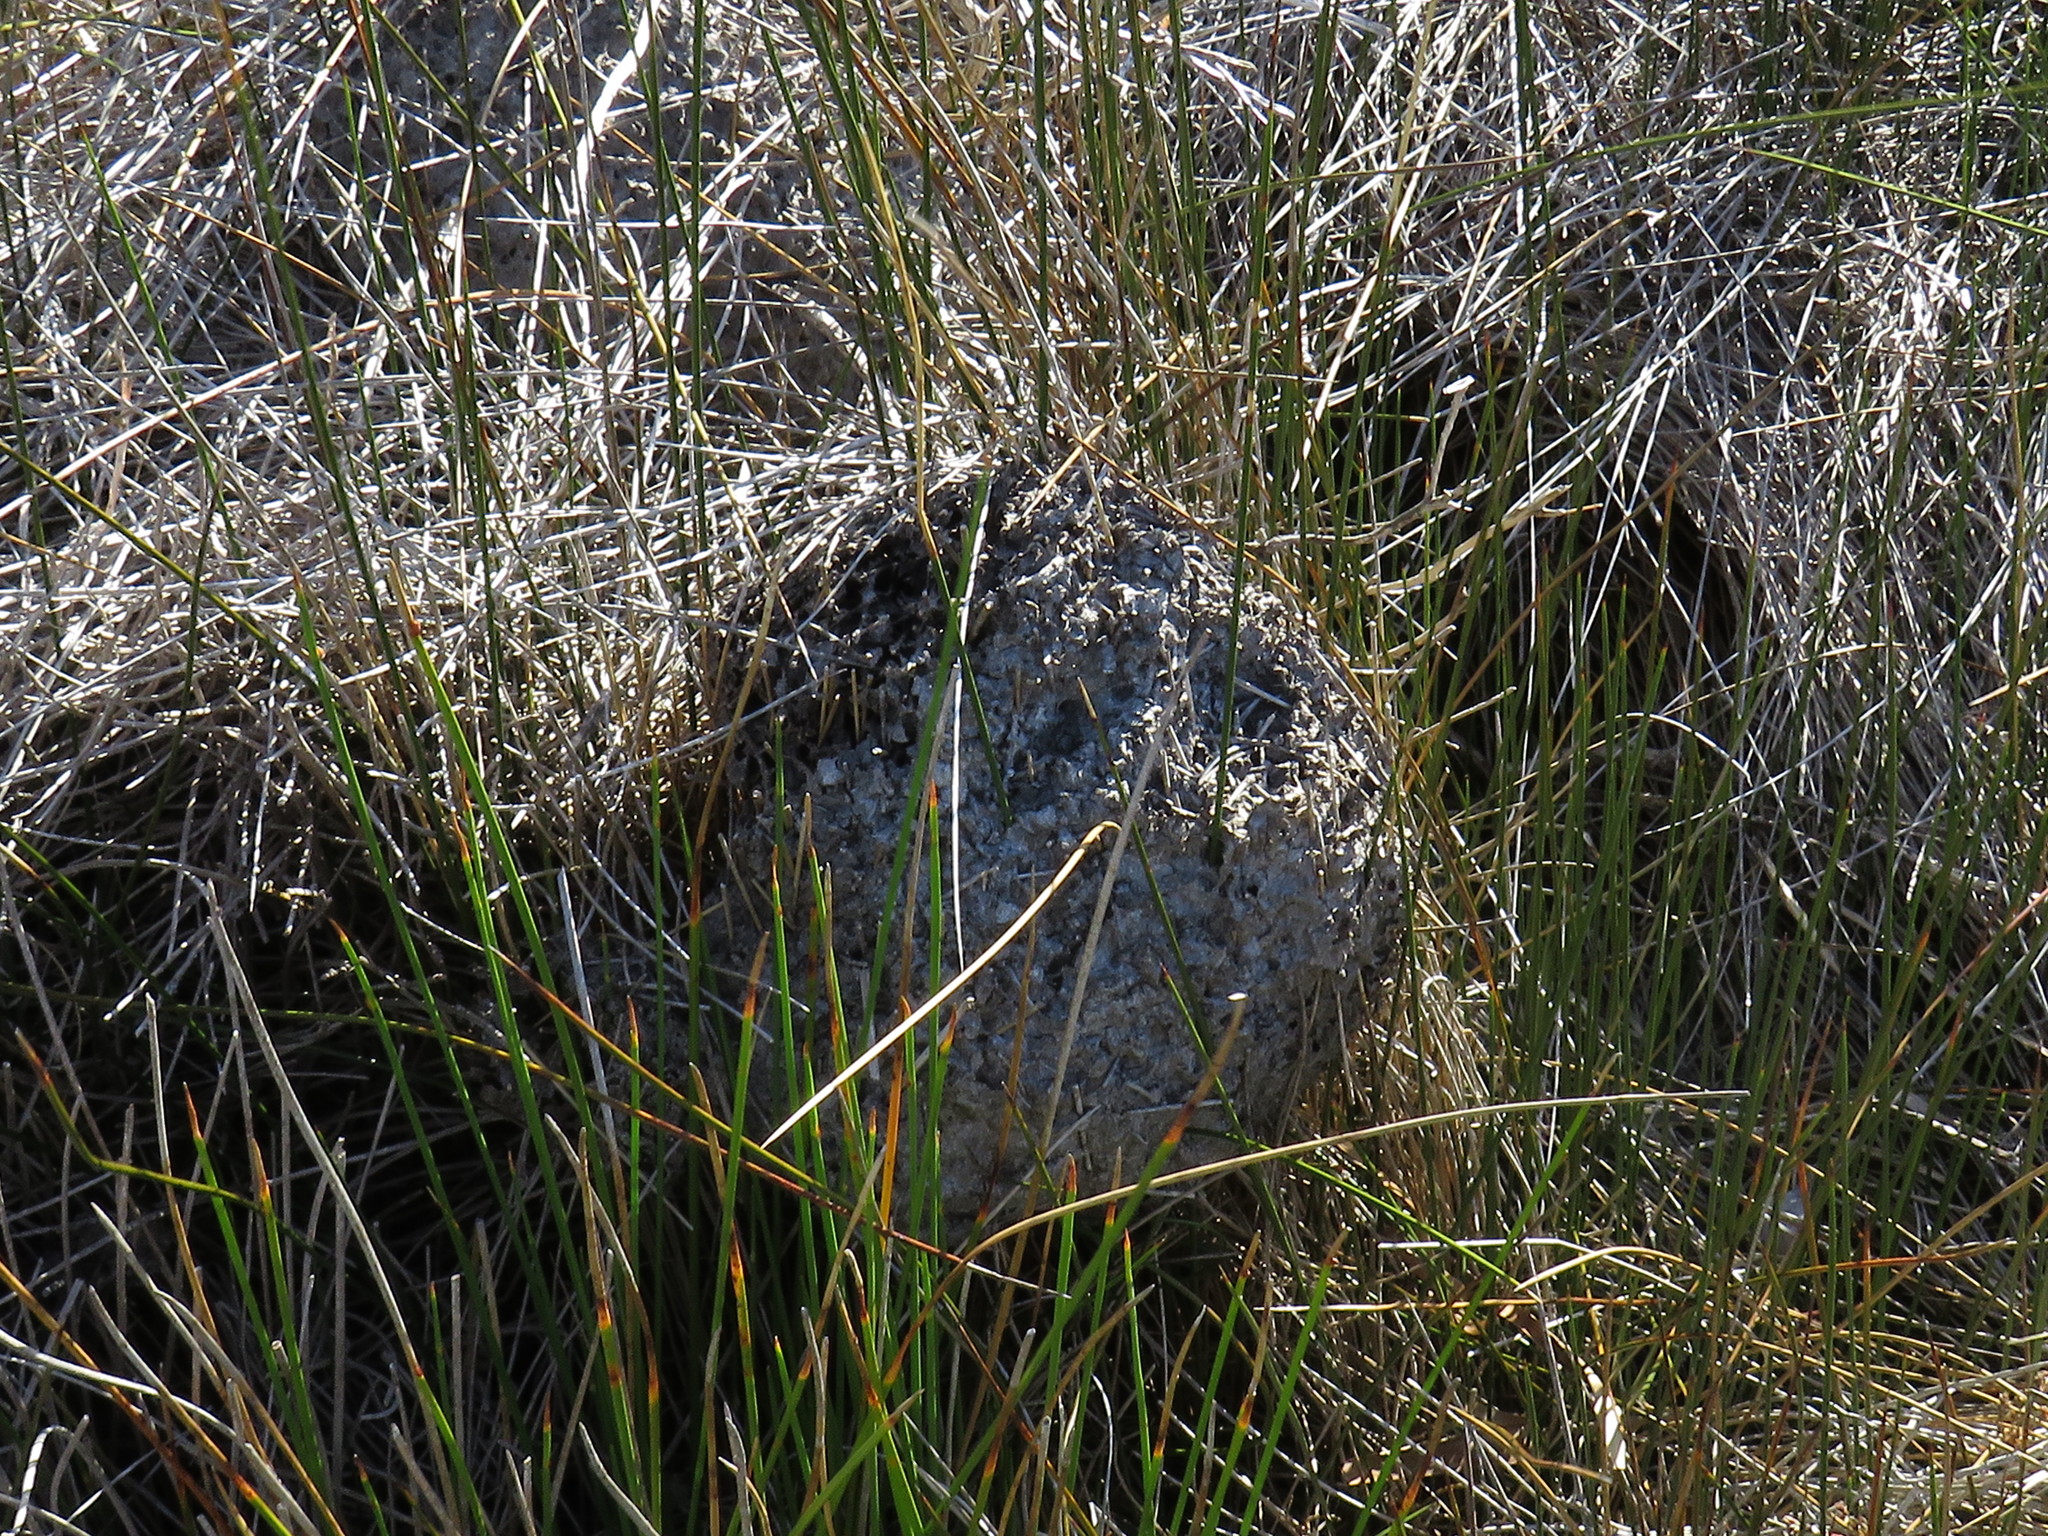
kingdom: Animalia
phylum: Arthropoda
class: Insecta
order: Hymenoptera
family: Formicidae
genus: Crematogaster
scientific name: Crematogaster peringueyi
